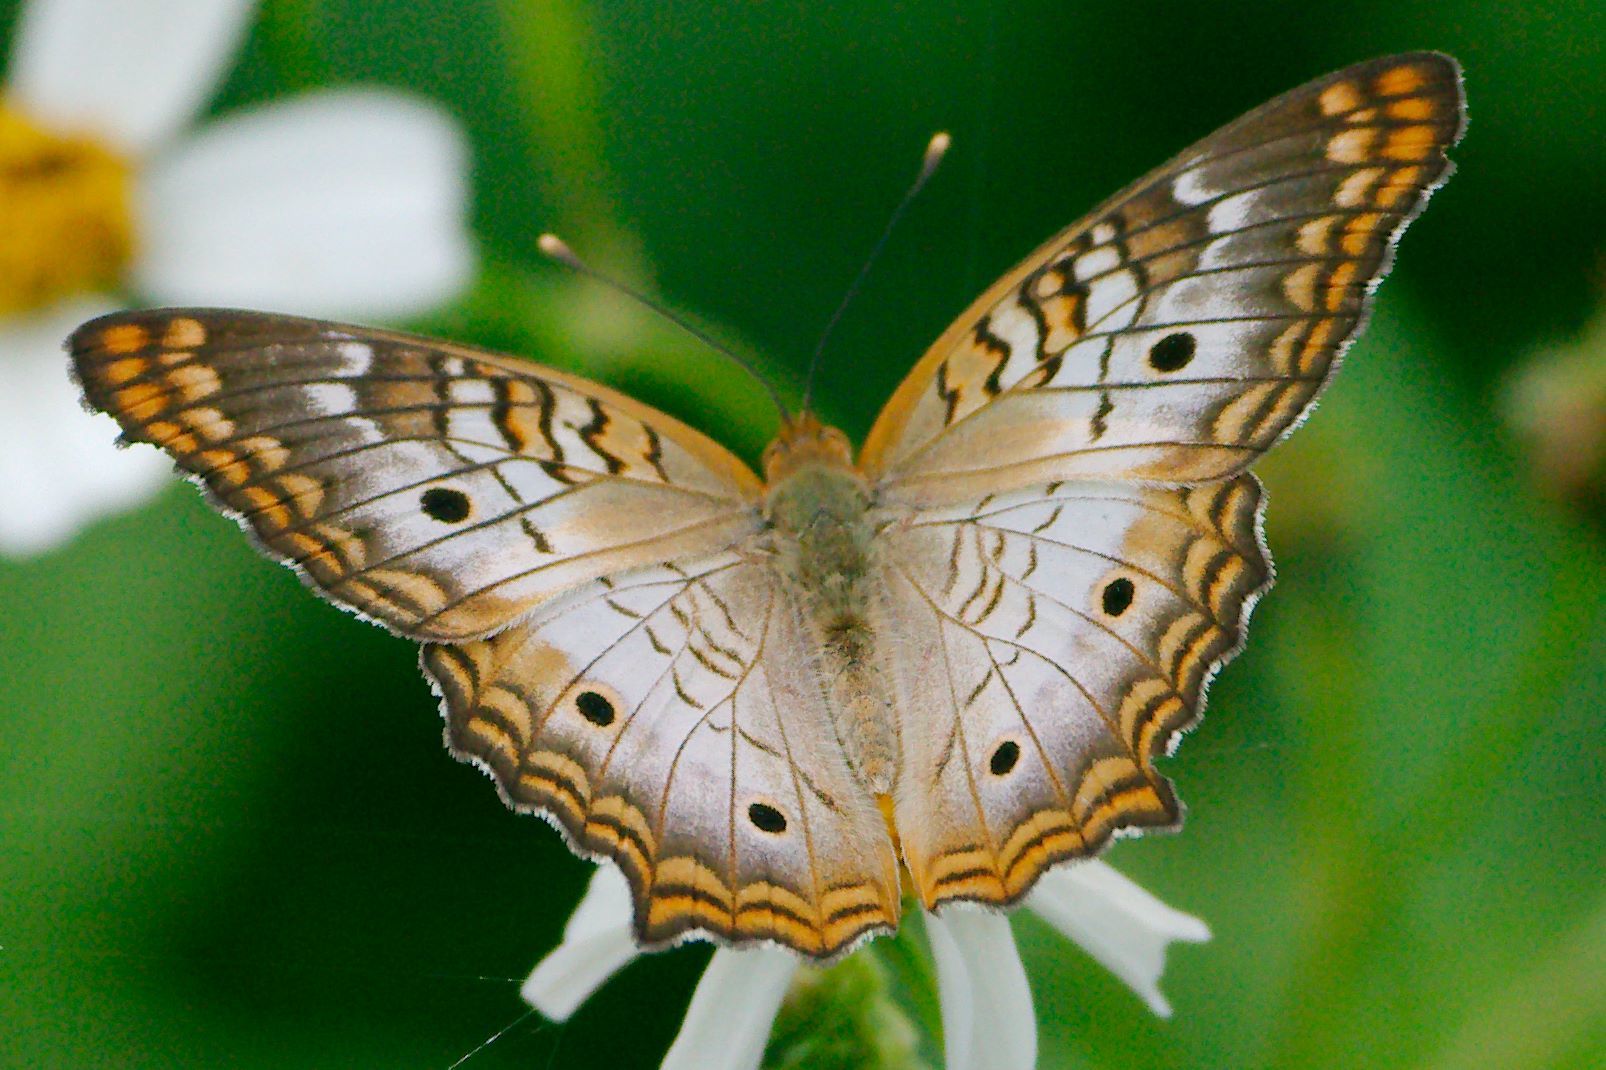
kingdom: Animalia
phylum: Arthropoda
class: Insecta
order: Lepidoptera
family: Nymphalidae
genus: Anartia
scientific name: Anartia jatrophae
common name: White peacock
